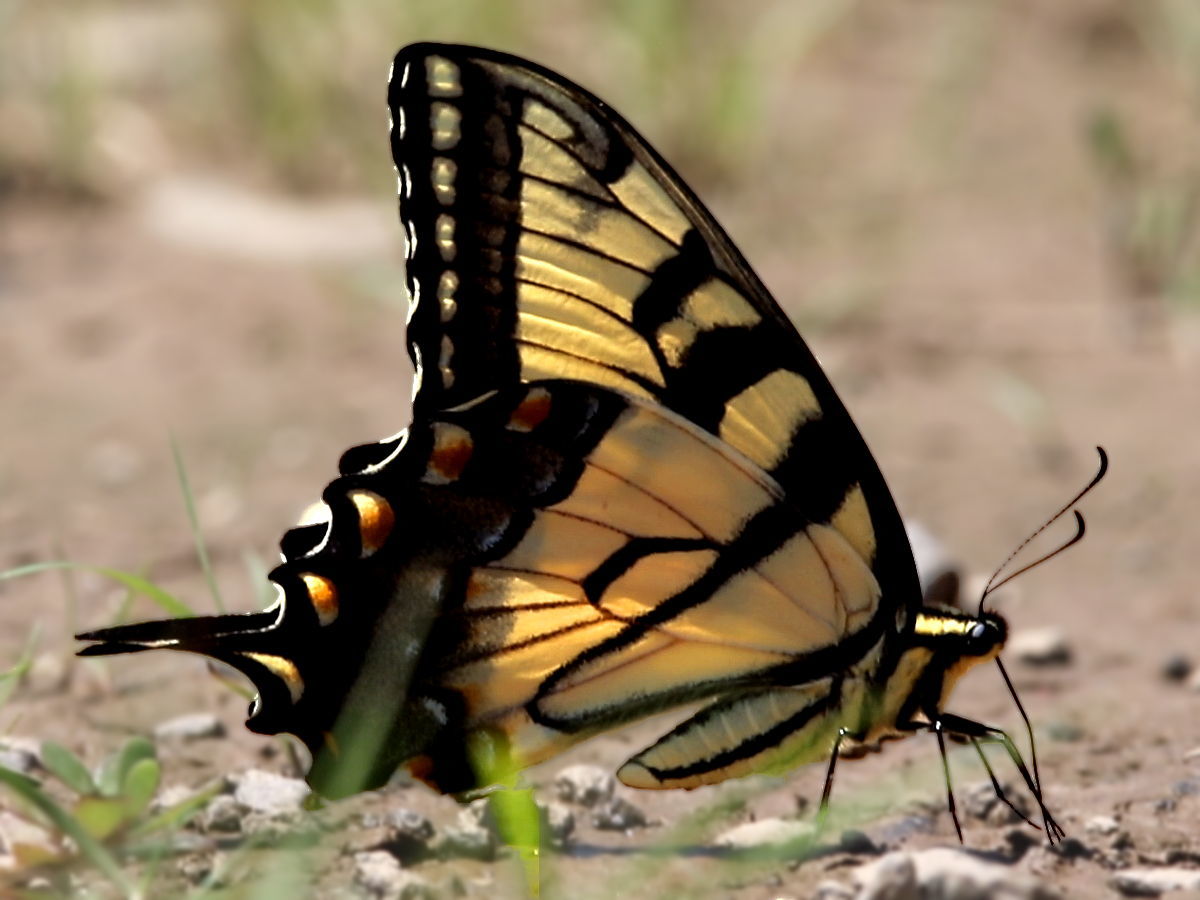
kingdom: Animalia
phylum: Arthropoda
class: Insecta
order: Lepidoptera
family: Papilionidae
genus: Papilio
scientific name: Papilio glaucus
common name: Tiger swallowtail
